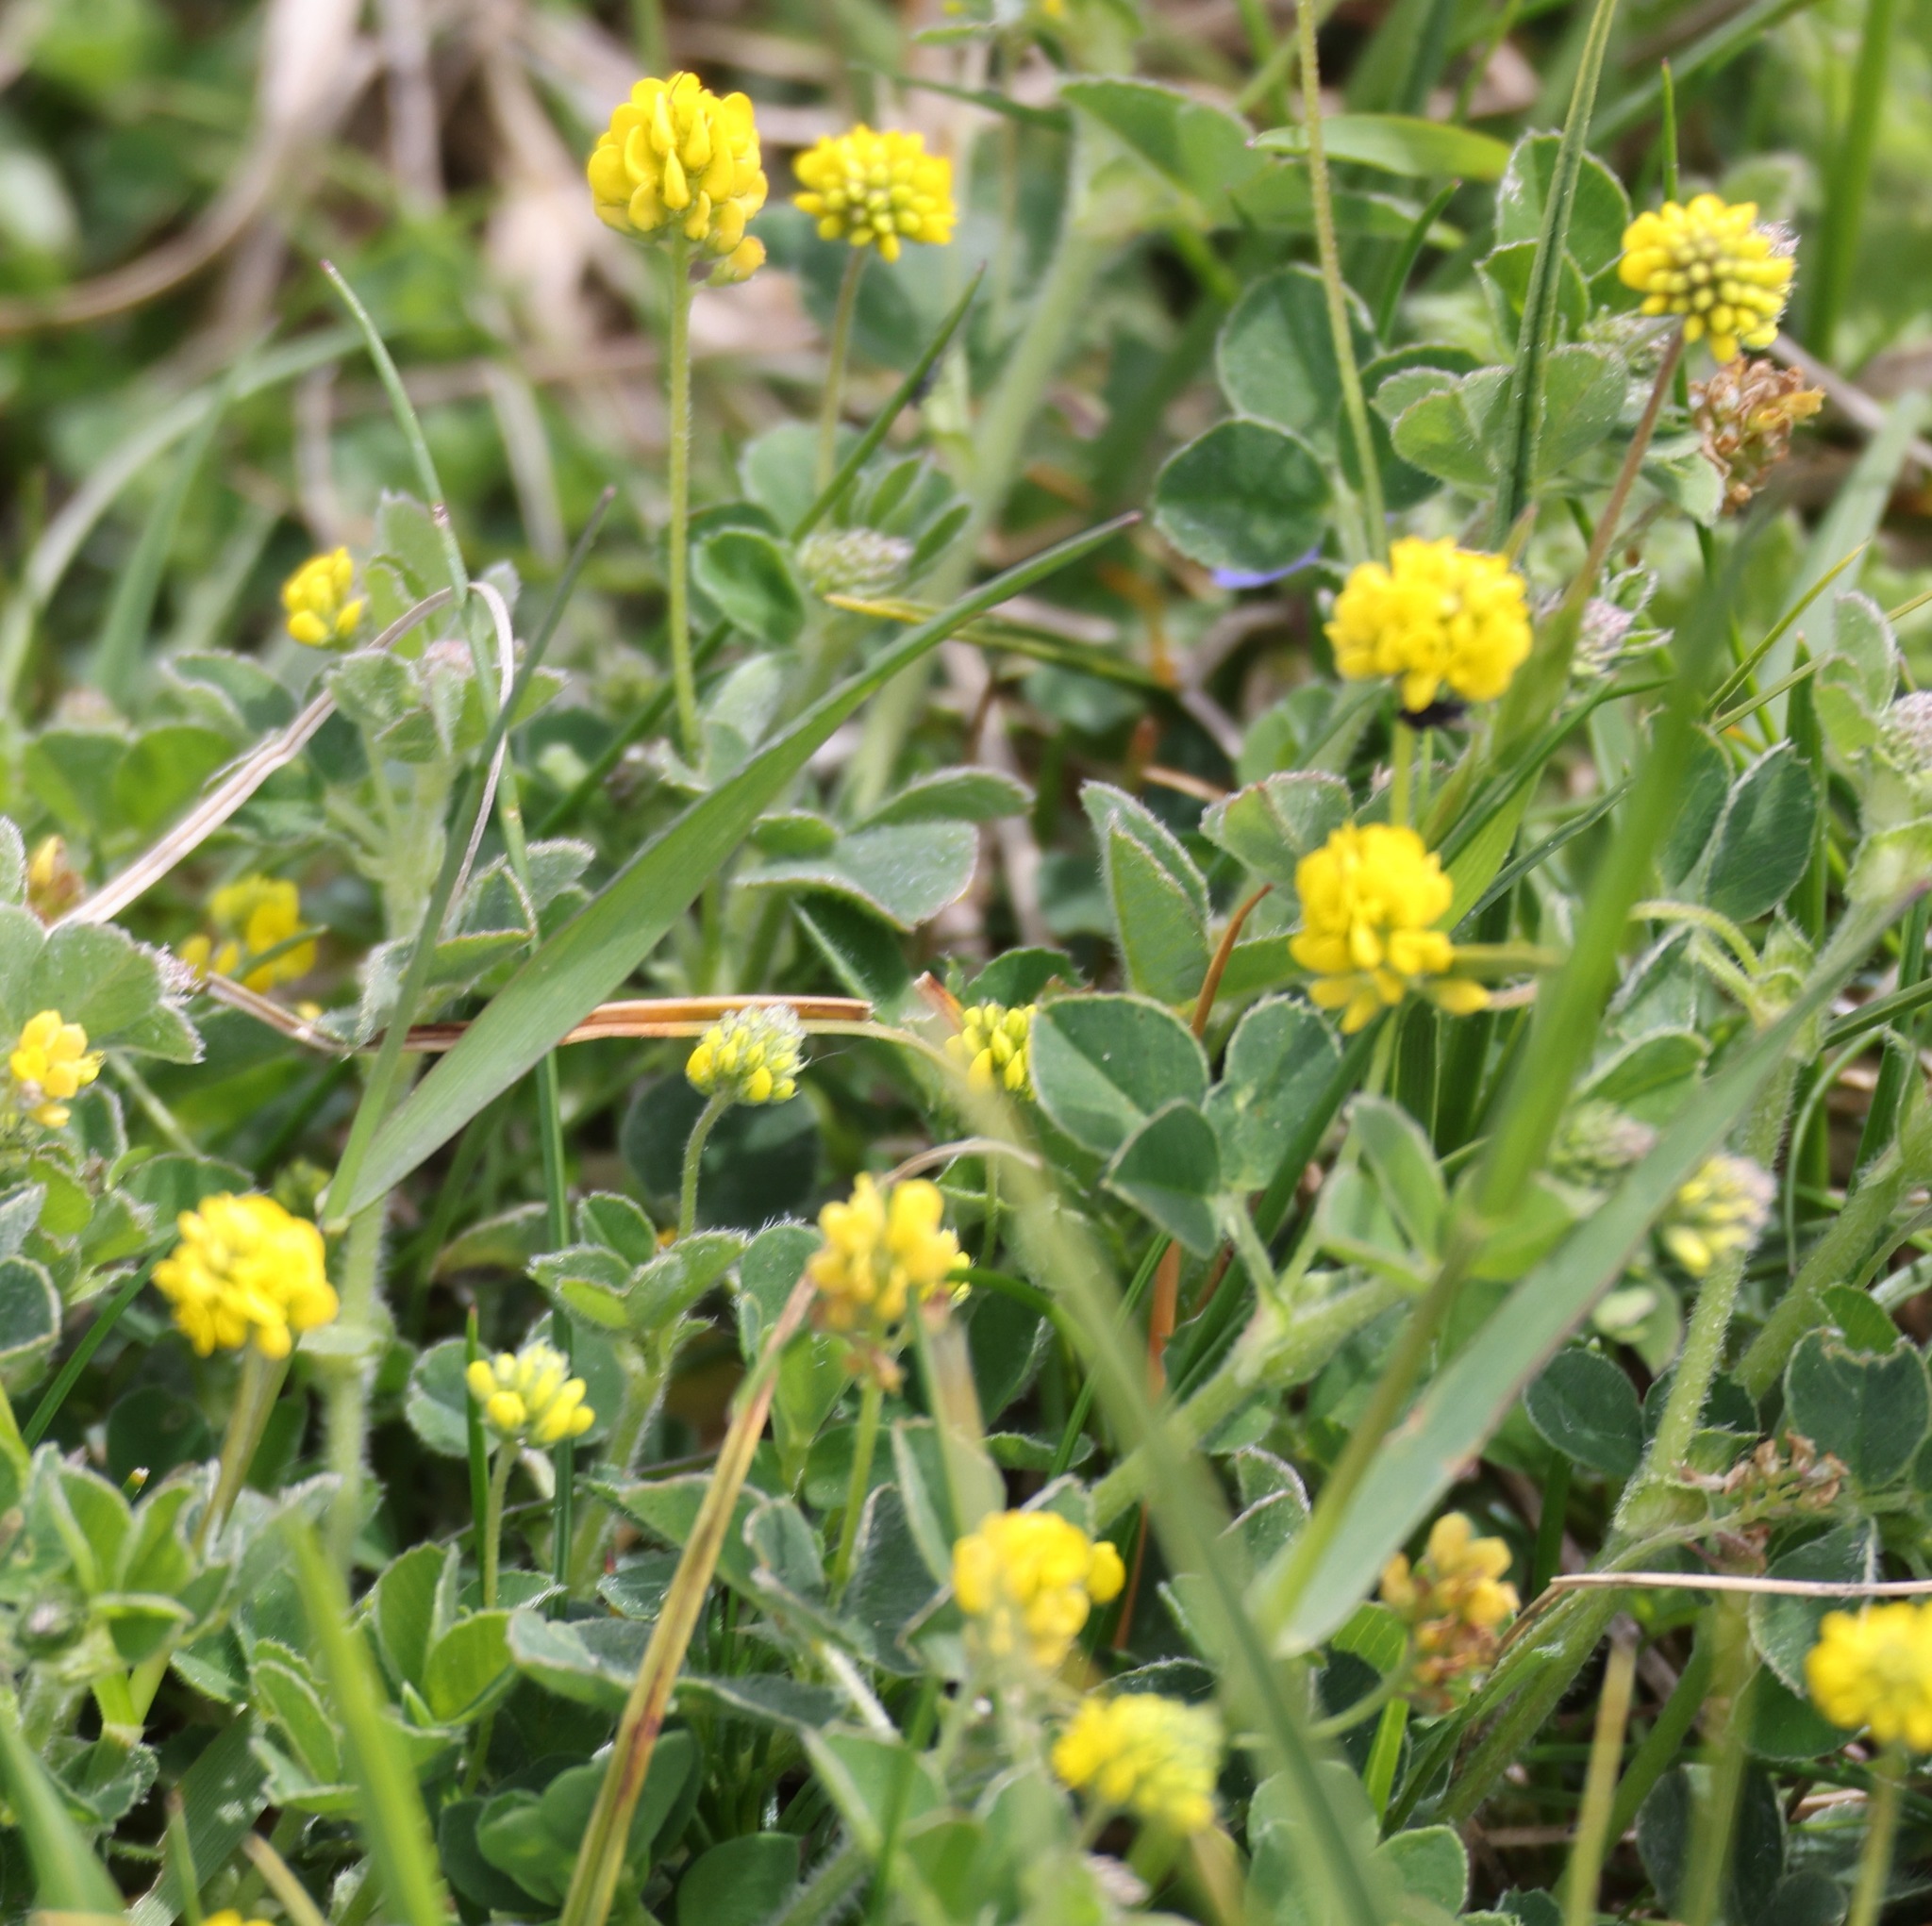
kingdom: Plantae
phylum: Tracheophyta
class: Magnoliopsida
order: Fabales
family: Fabaceae
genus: Medicago
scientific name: Medicago lupulina
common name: Black medick
